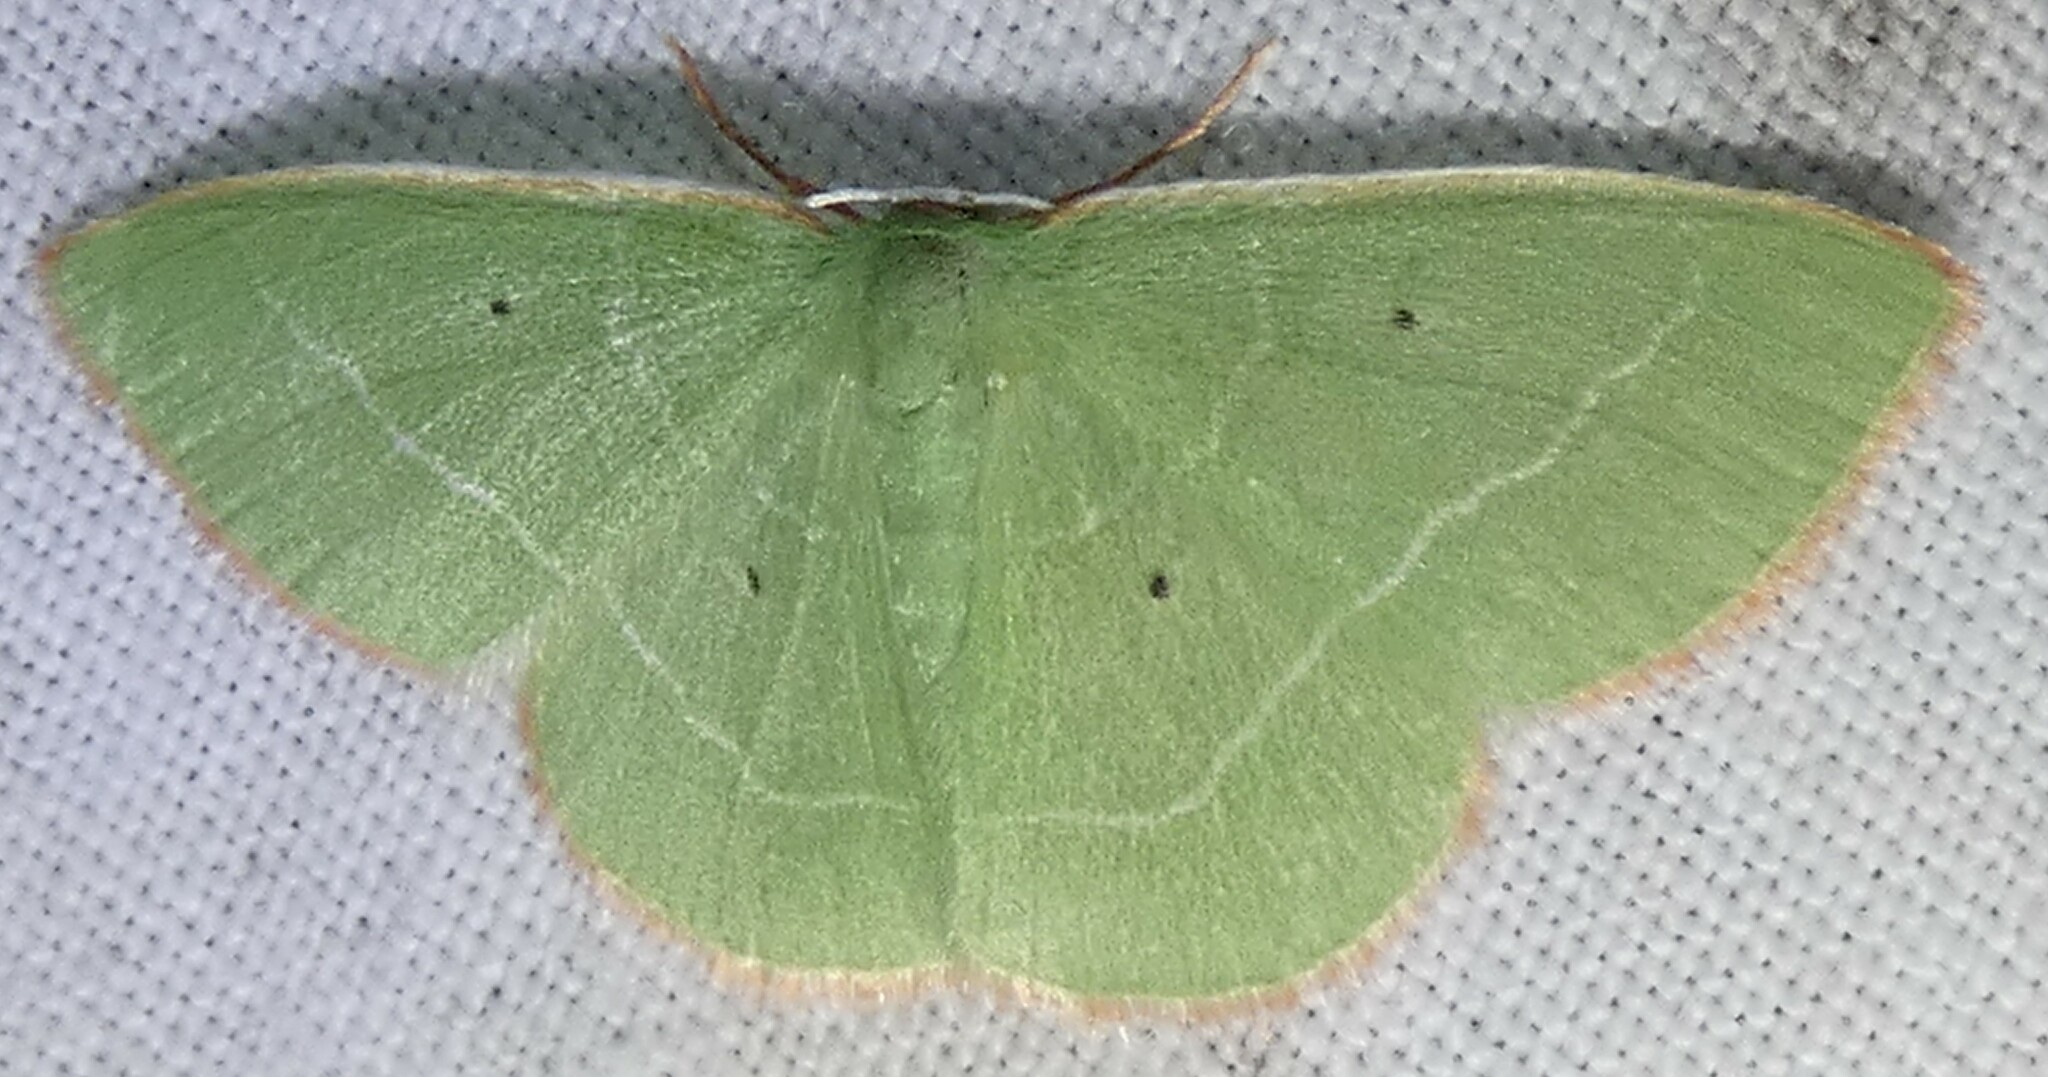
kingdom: Animalia
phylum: Arthropoda
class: Insecta
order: Lepidoptera
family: Geometridae
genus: Nemoria
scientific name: Nemoria elfa
